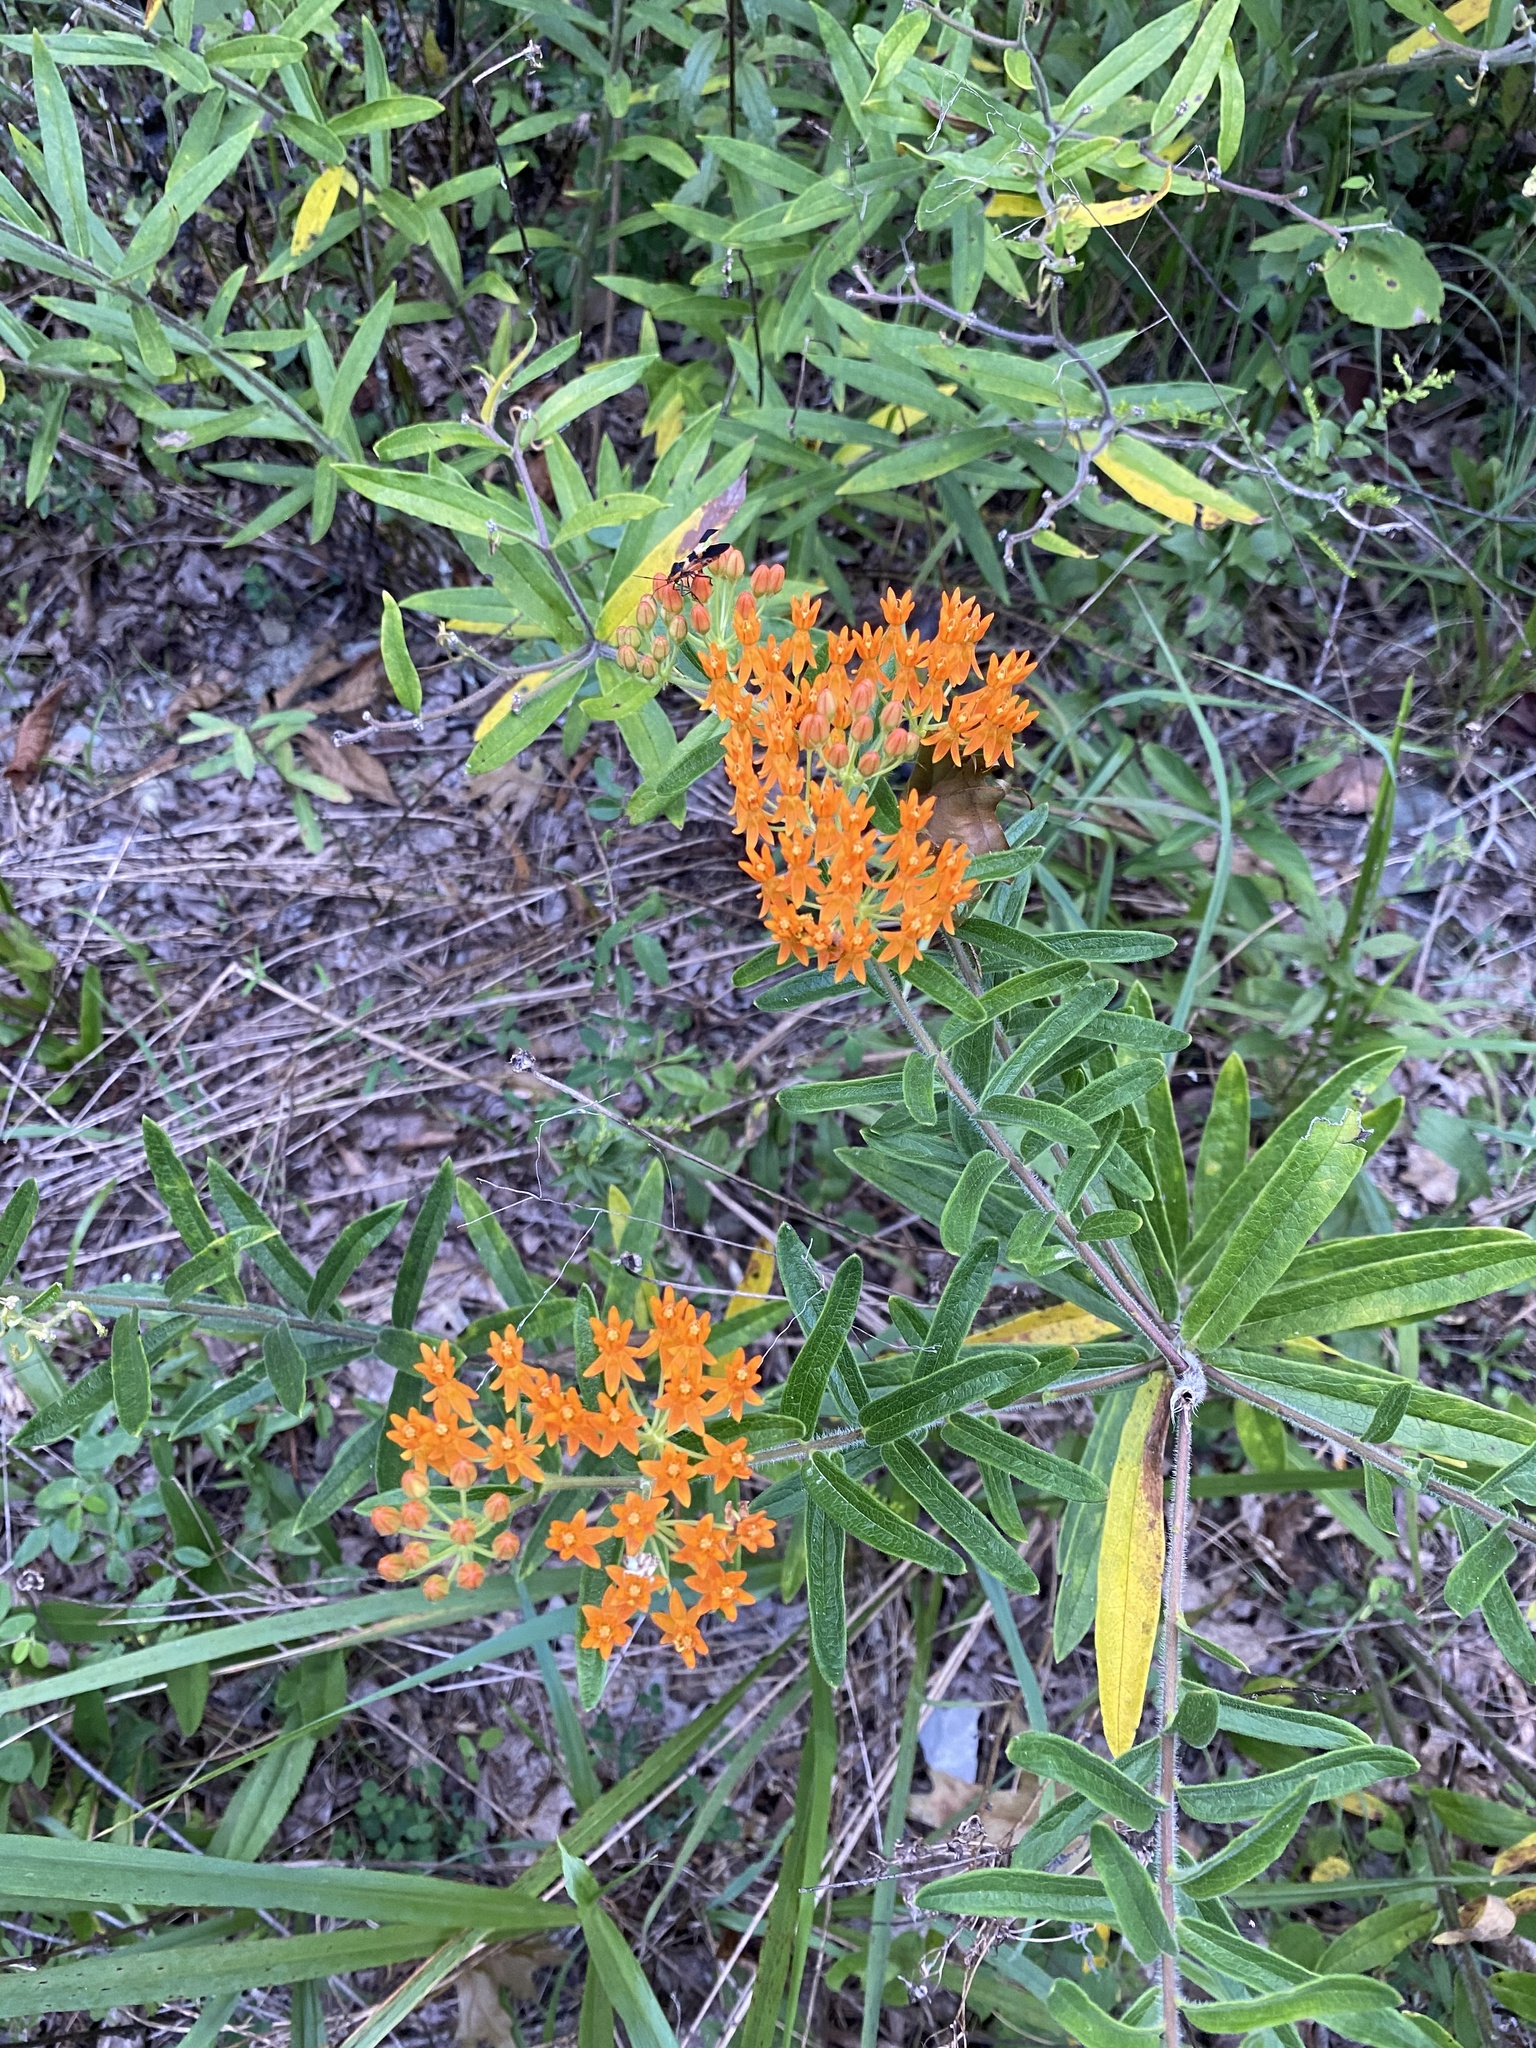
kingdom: Plantae
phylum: Tracheophyta
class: Magnoliopsida
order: Gentianales
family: Apocynaceae
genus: Asclepias
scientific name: Asclepias tuberosa
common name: Butterfly milkweed
